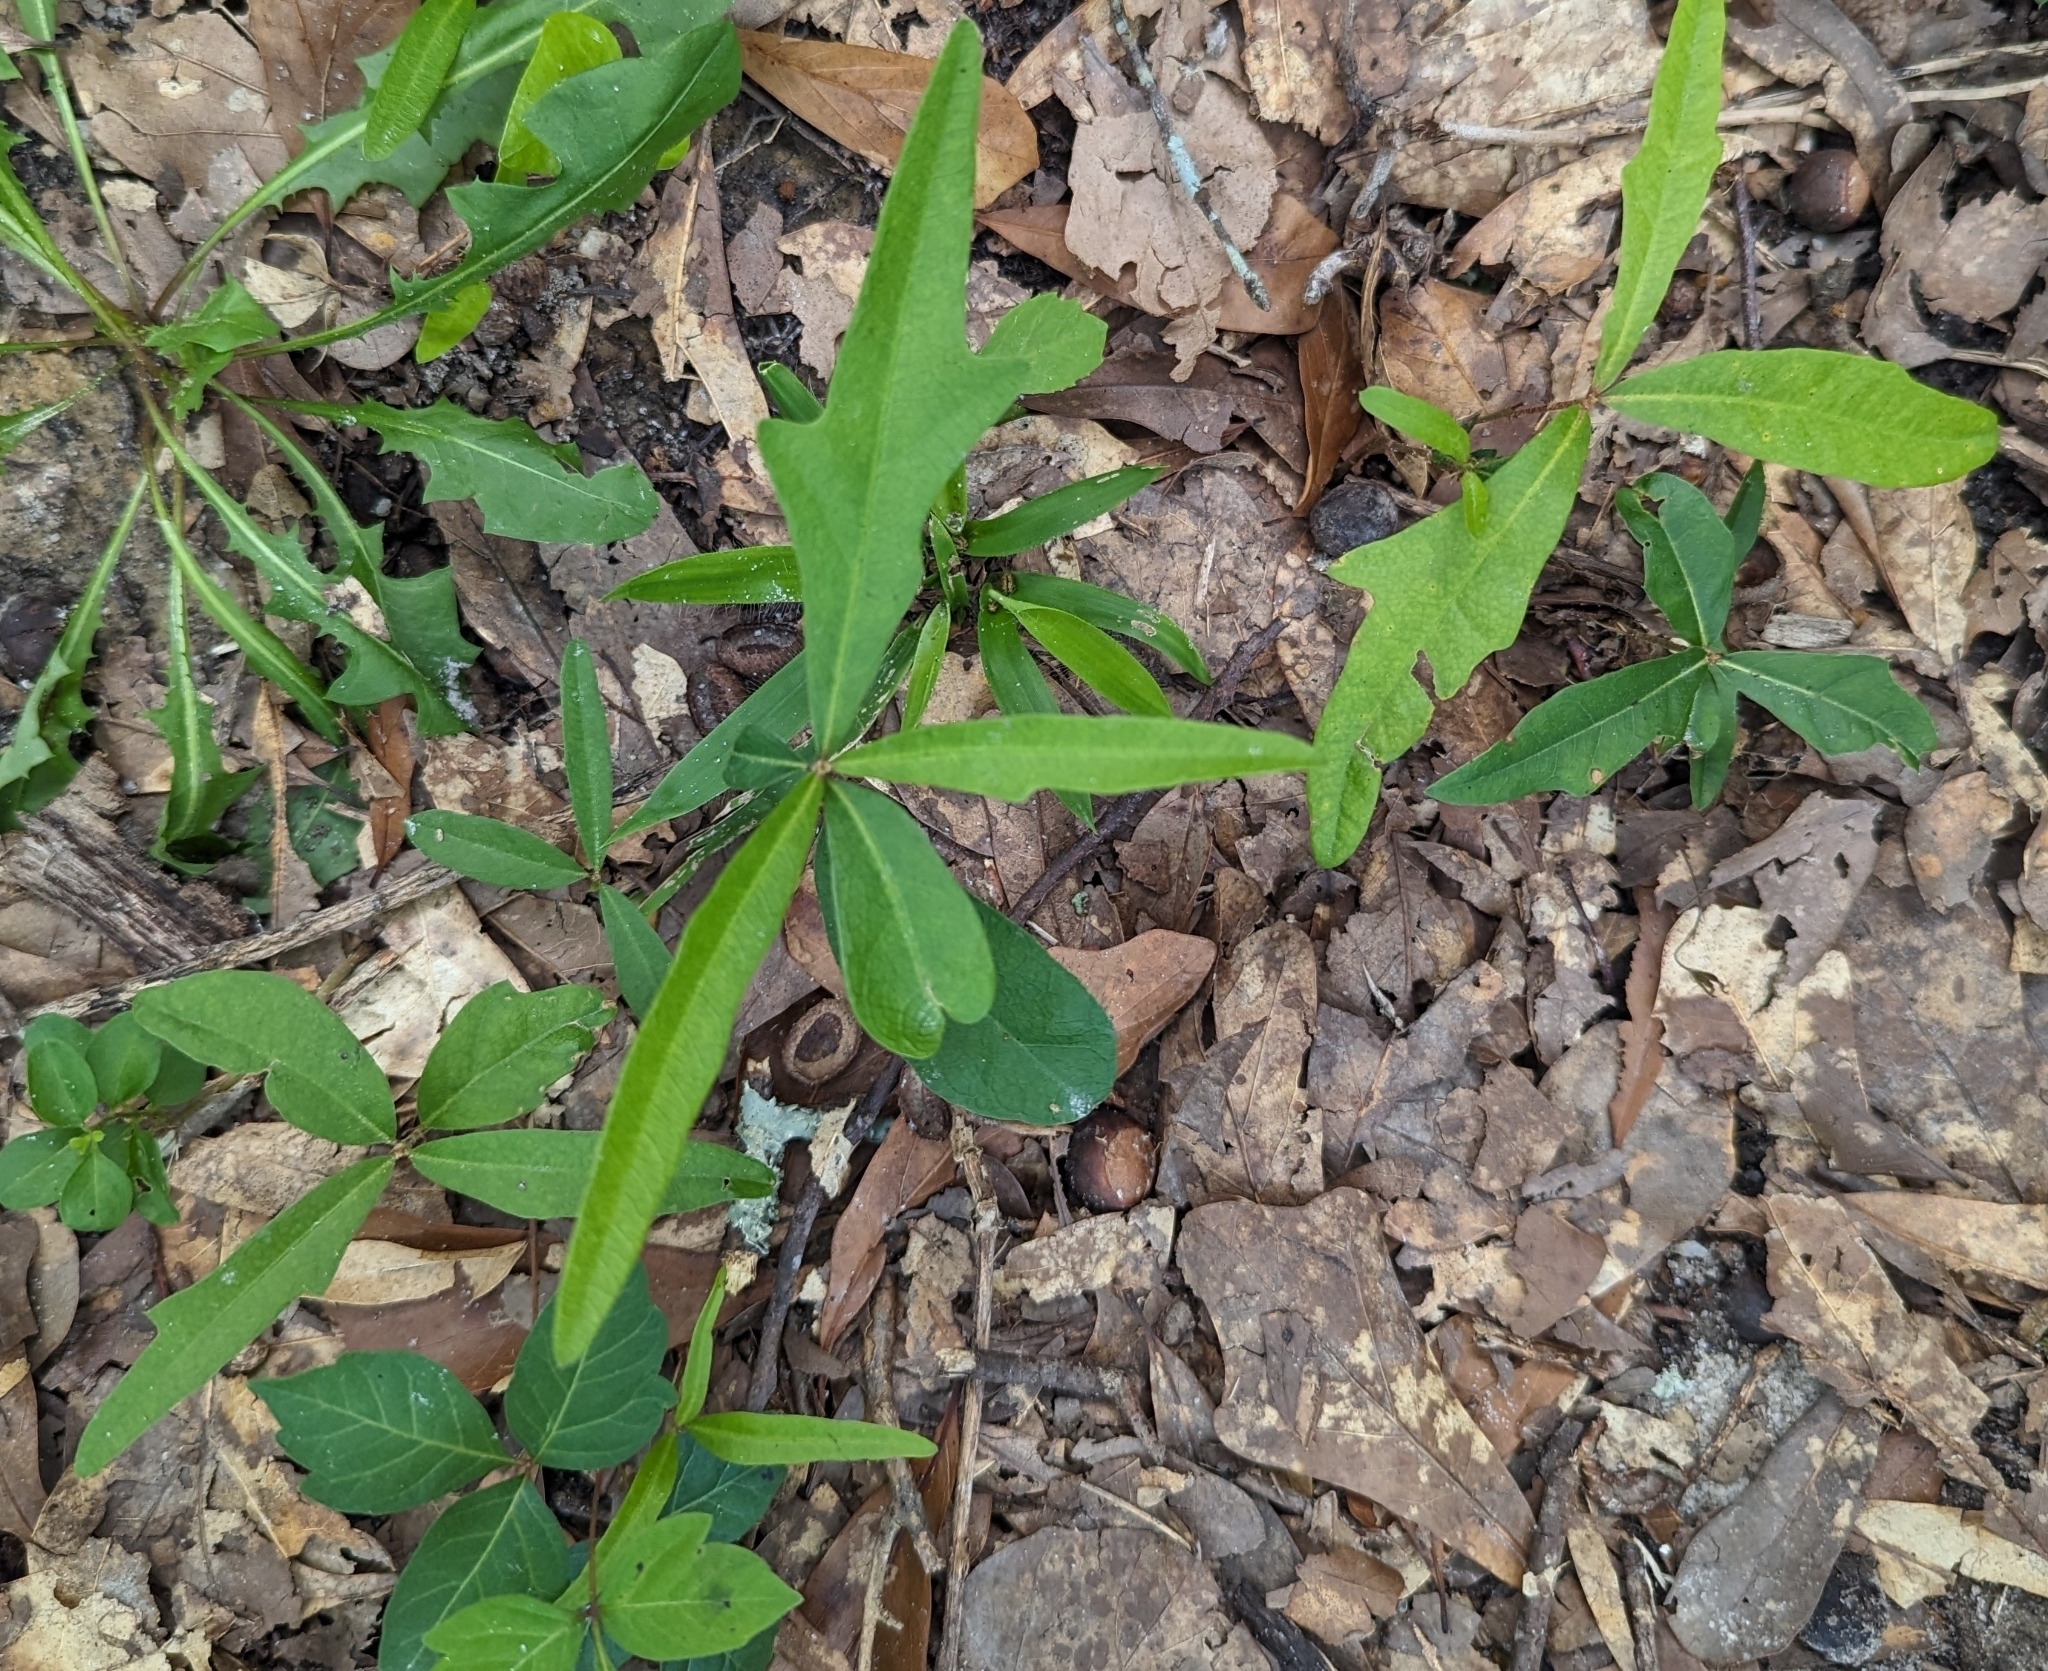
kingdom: Plantae
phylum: Tracheophyta
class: Magnoliopsida
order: Fagales
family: Fagaceae
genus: Quercus
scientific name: Quercus phellos
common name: Willow oak
